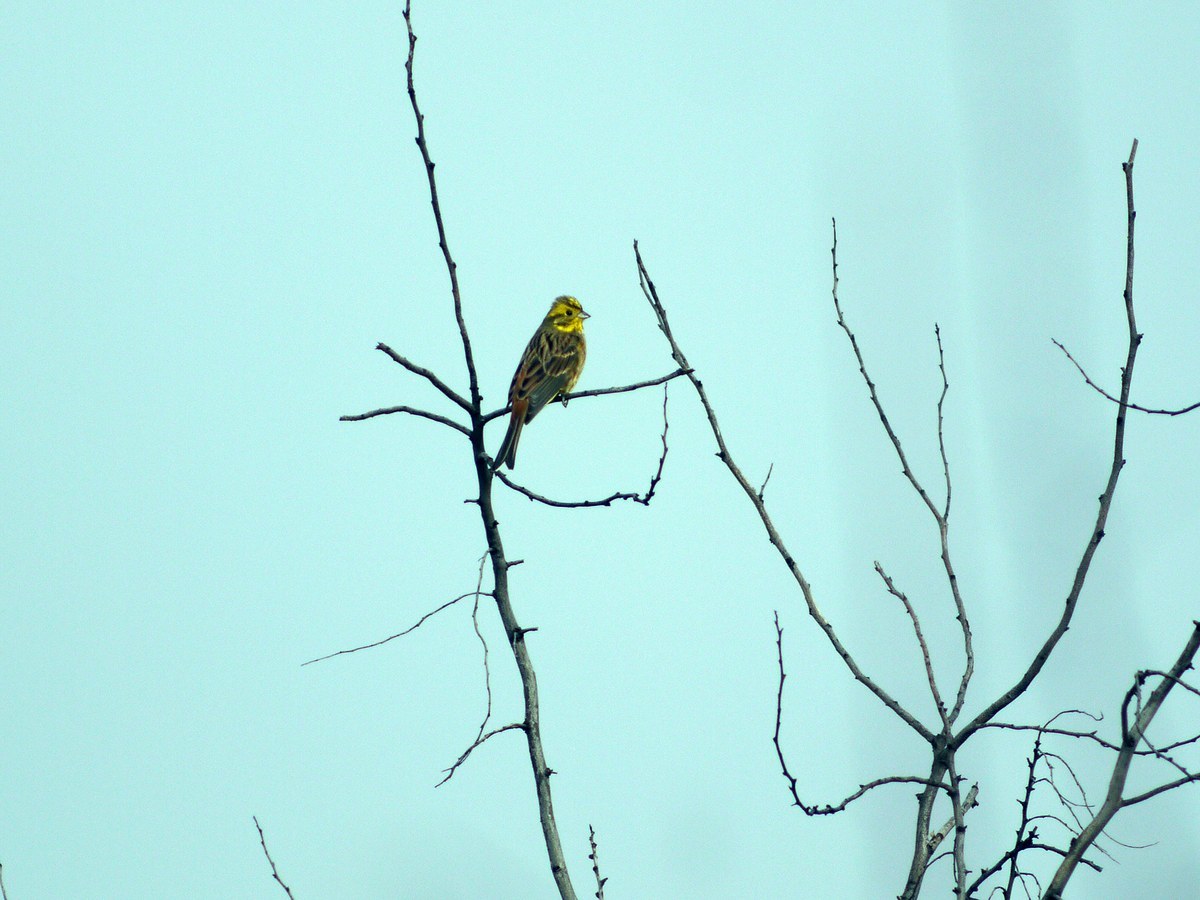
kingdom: Animalia
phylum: Chordata
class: Aves
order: Passeriformes
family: Emberizidae
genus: Emberiza
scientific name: Emberiza citrinella
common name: Yellowhammer
